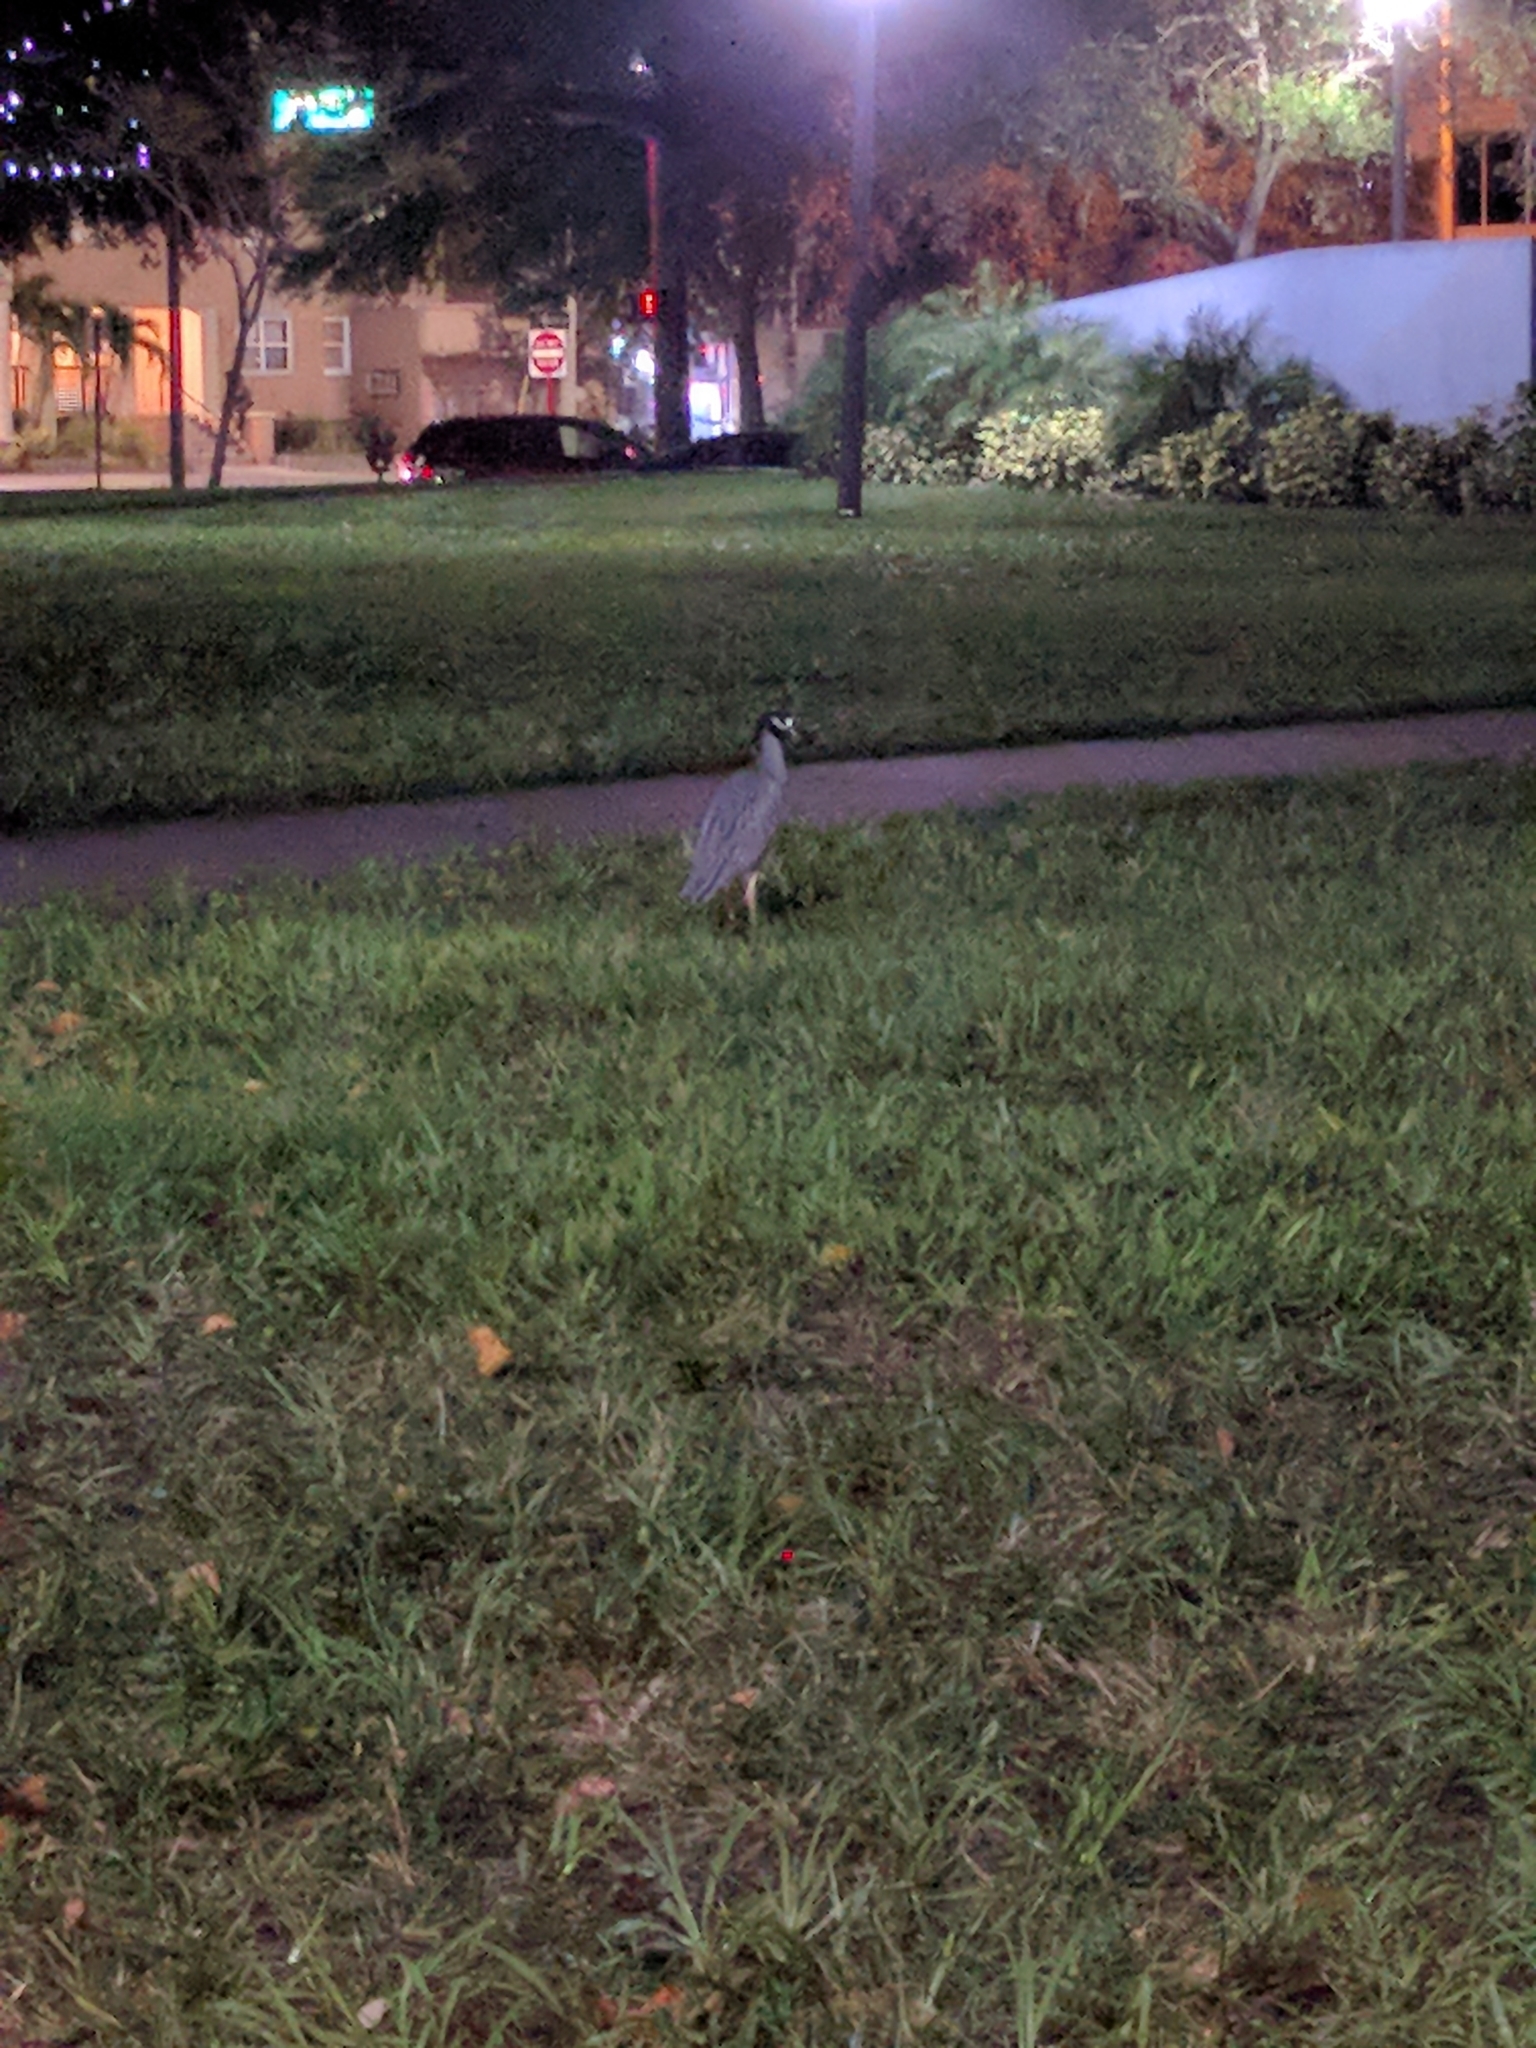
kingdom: Animalia
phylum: Chordata
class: Aves
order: Pelecaniformes
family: Ardeidae
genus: Nyctanassa
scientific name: Nyctanassa violacea
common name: Yellow-crowned night heron
